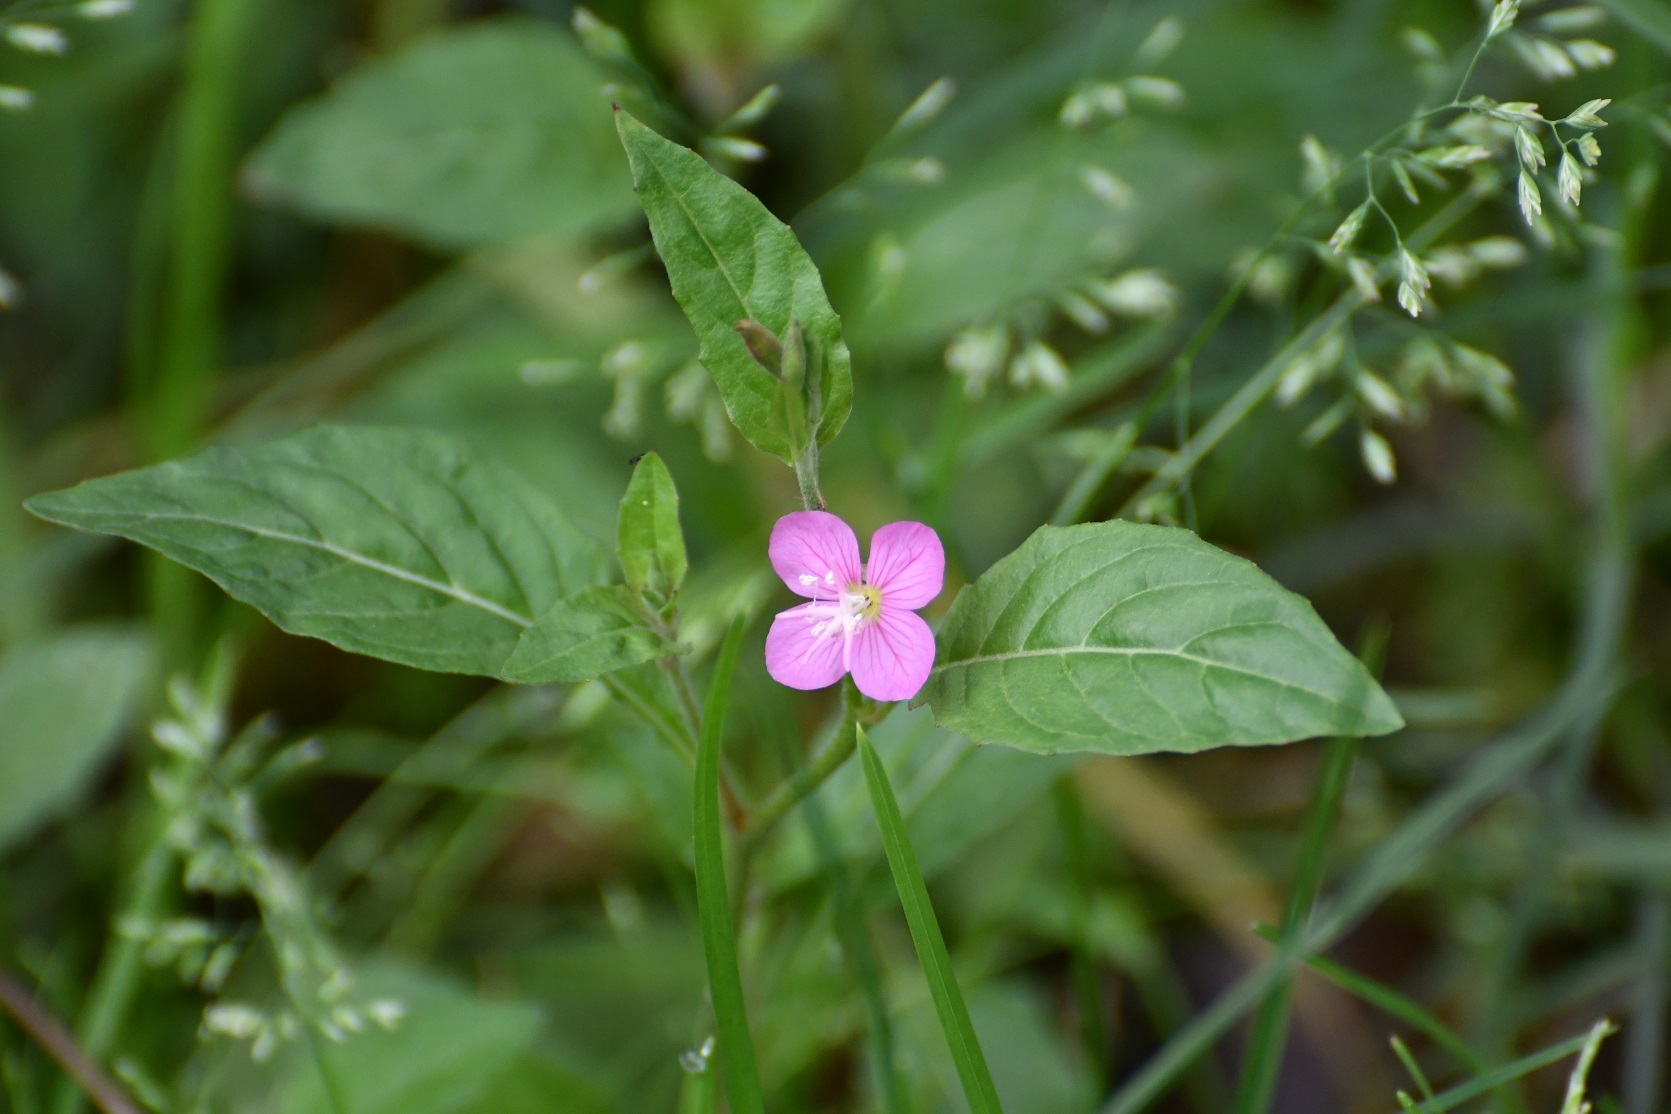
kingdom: Plantae
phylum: Tracheophyta
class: Magnoliopsida
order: Myrtales
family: Onagraceae
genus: Oenothera
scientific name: Oenothera rosea
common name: Rosy evening-primrose
